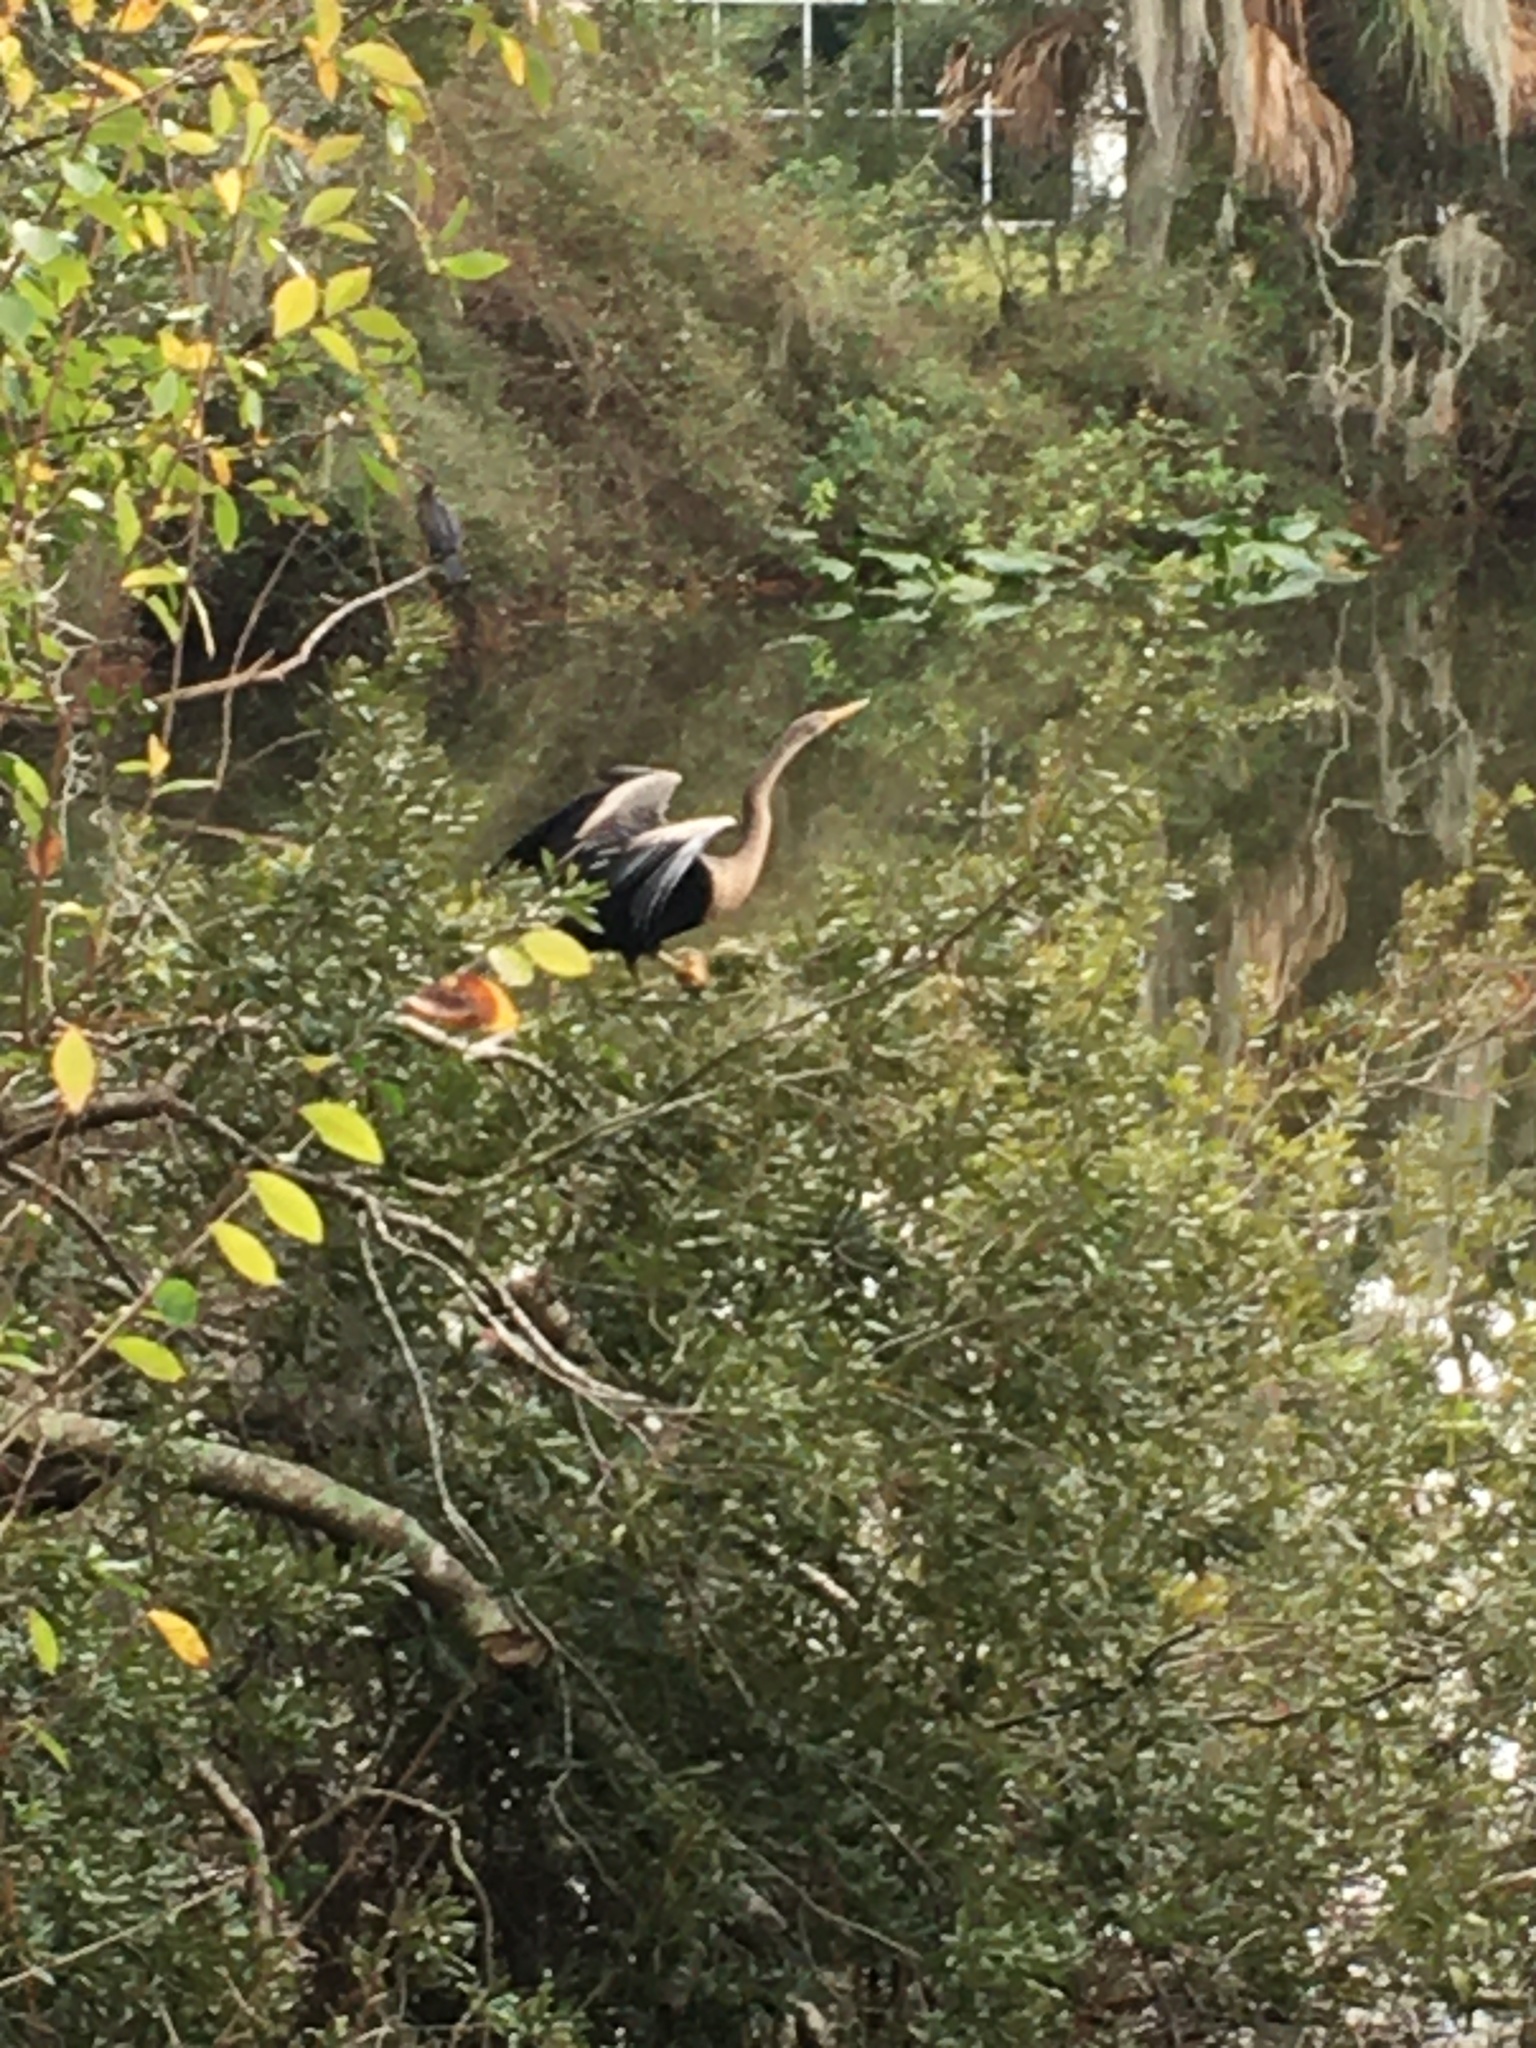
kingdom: Animalia
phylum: Chordata
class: Aves
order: Suliformes
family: Anhingidae
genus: Anhinga
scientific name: Anhinga anhinga
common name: Anhinga
